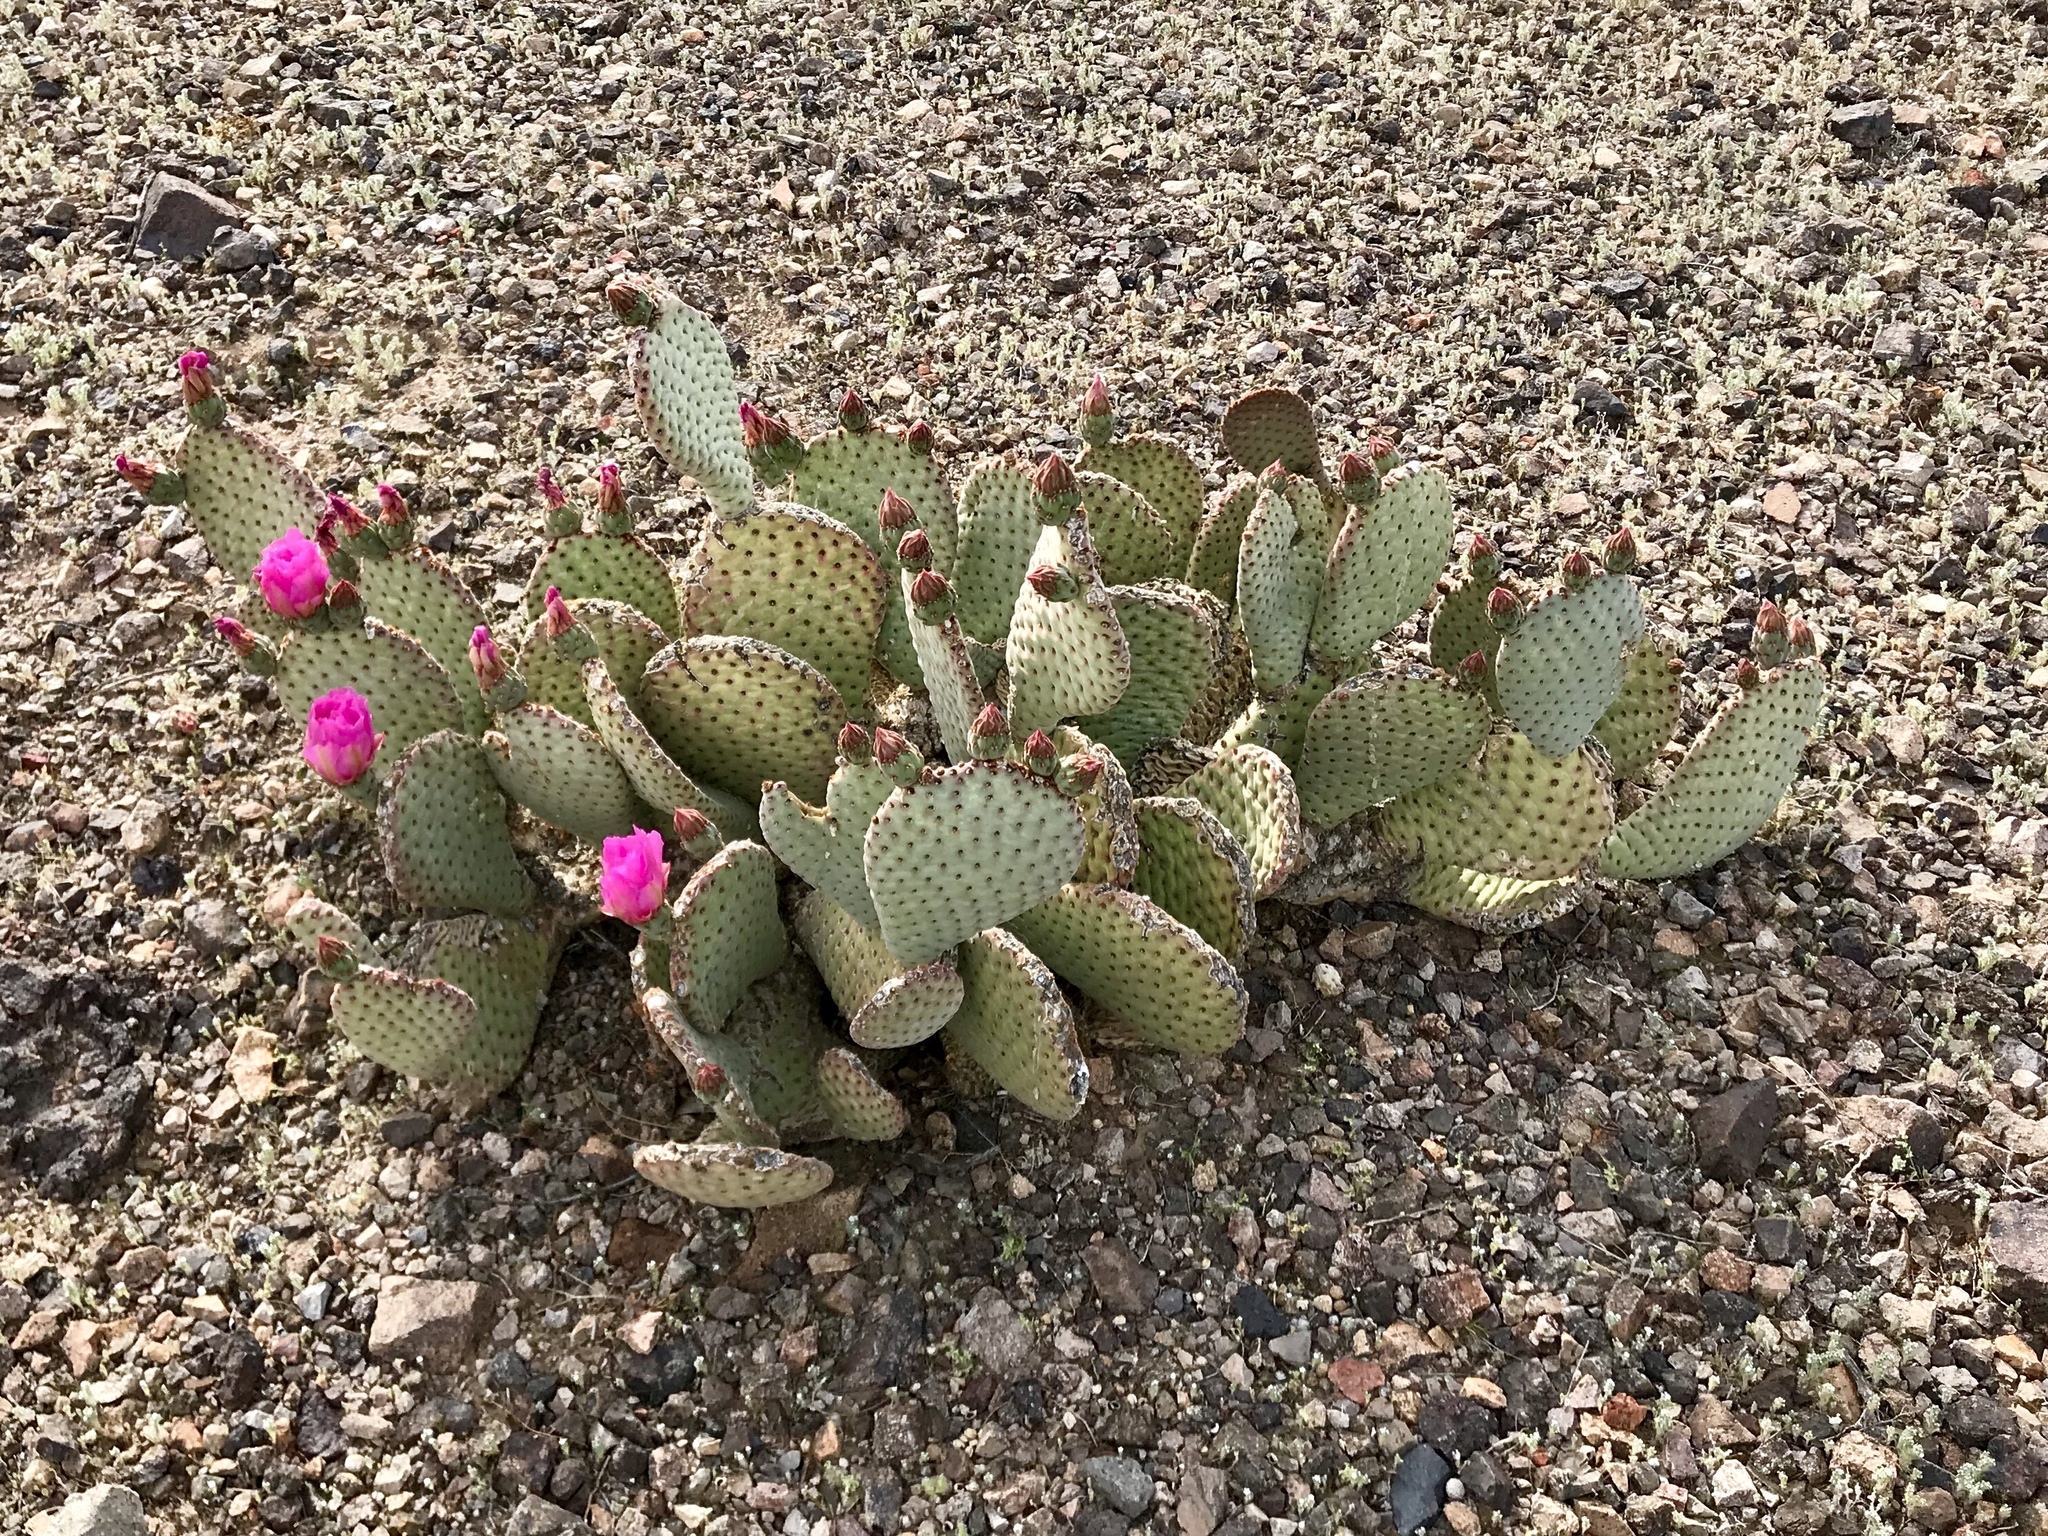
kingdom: Plantae
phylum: Tracheophyta
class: Magnoliopsida
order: Caryophyllales
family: Cactaceae
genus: Opuntia
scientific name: Opuntia basilaris
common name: Beavertail prickly-pear
